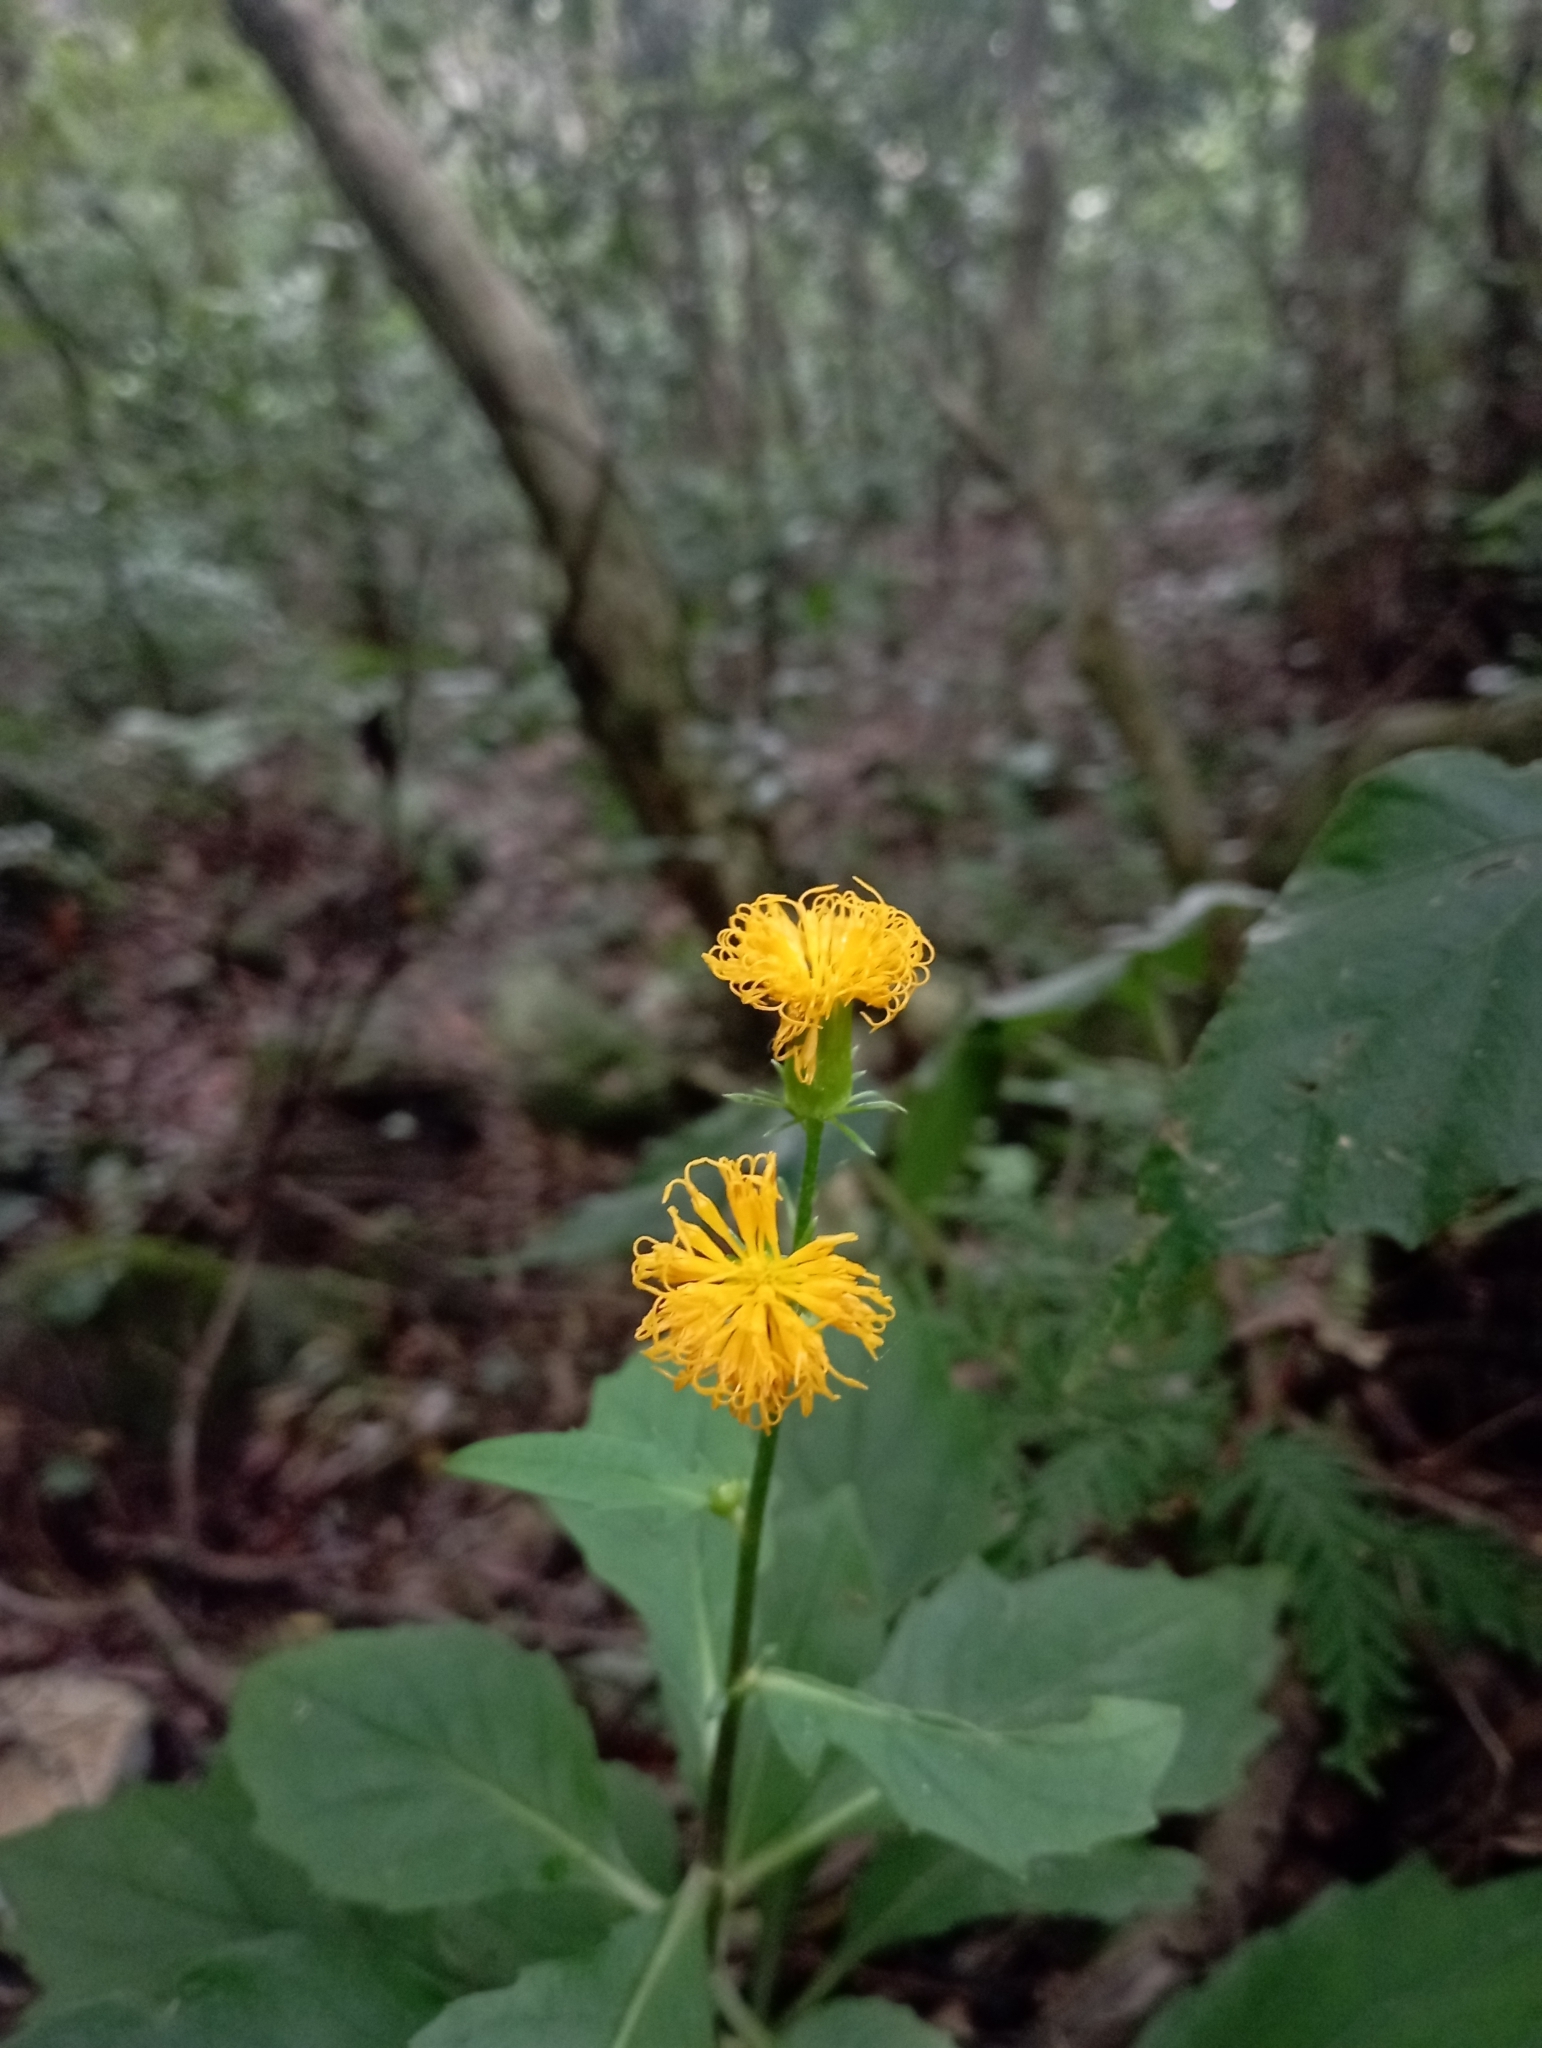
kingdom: Plantae
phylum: Tracheophyta
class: Magnoliopsida
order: Asterales
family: Asteraceae
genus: Gynura
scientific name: Gynura japonica
